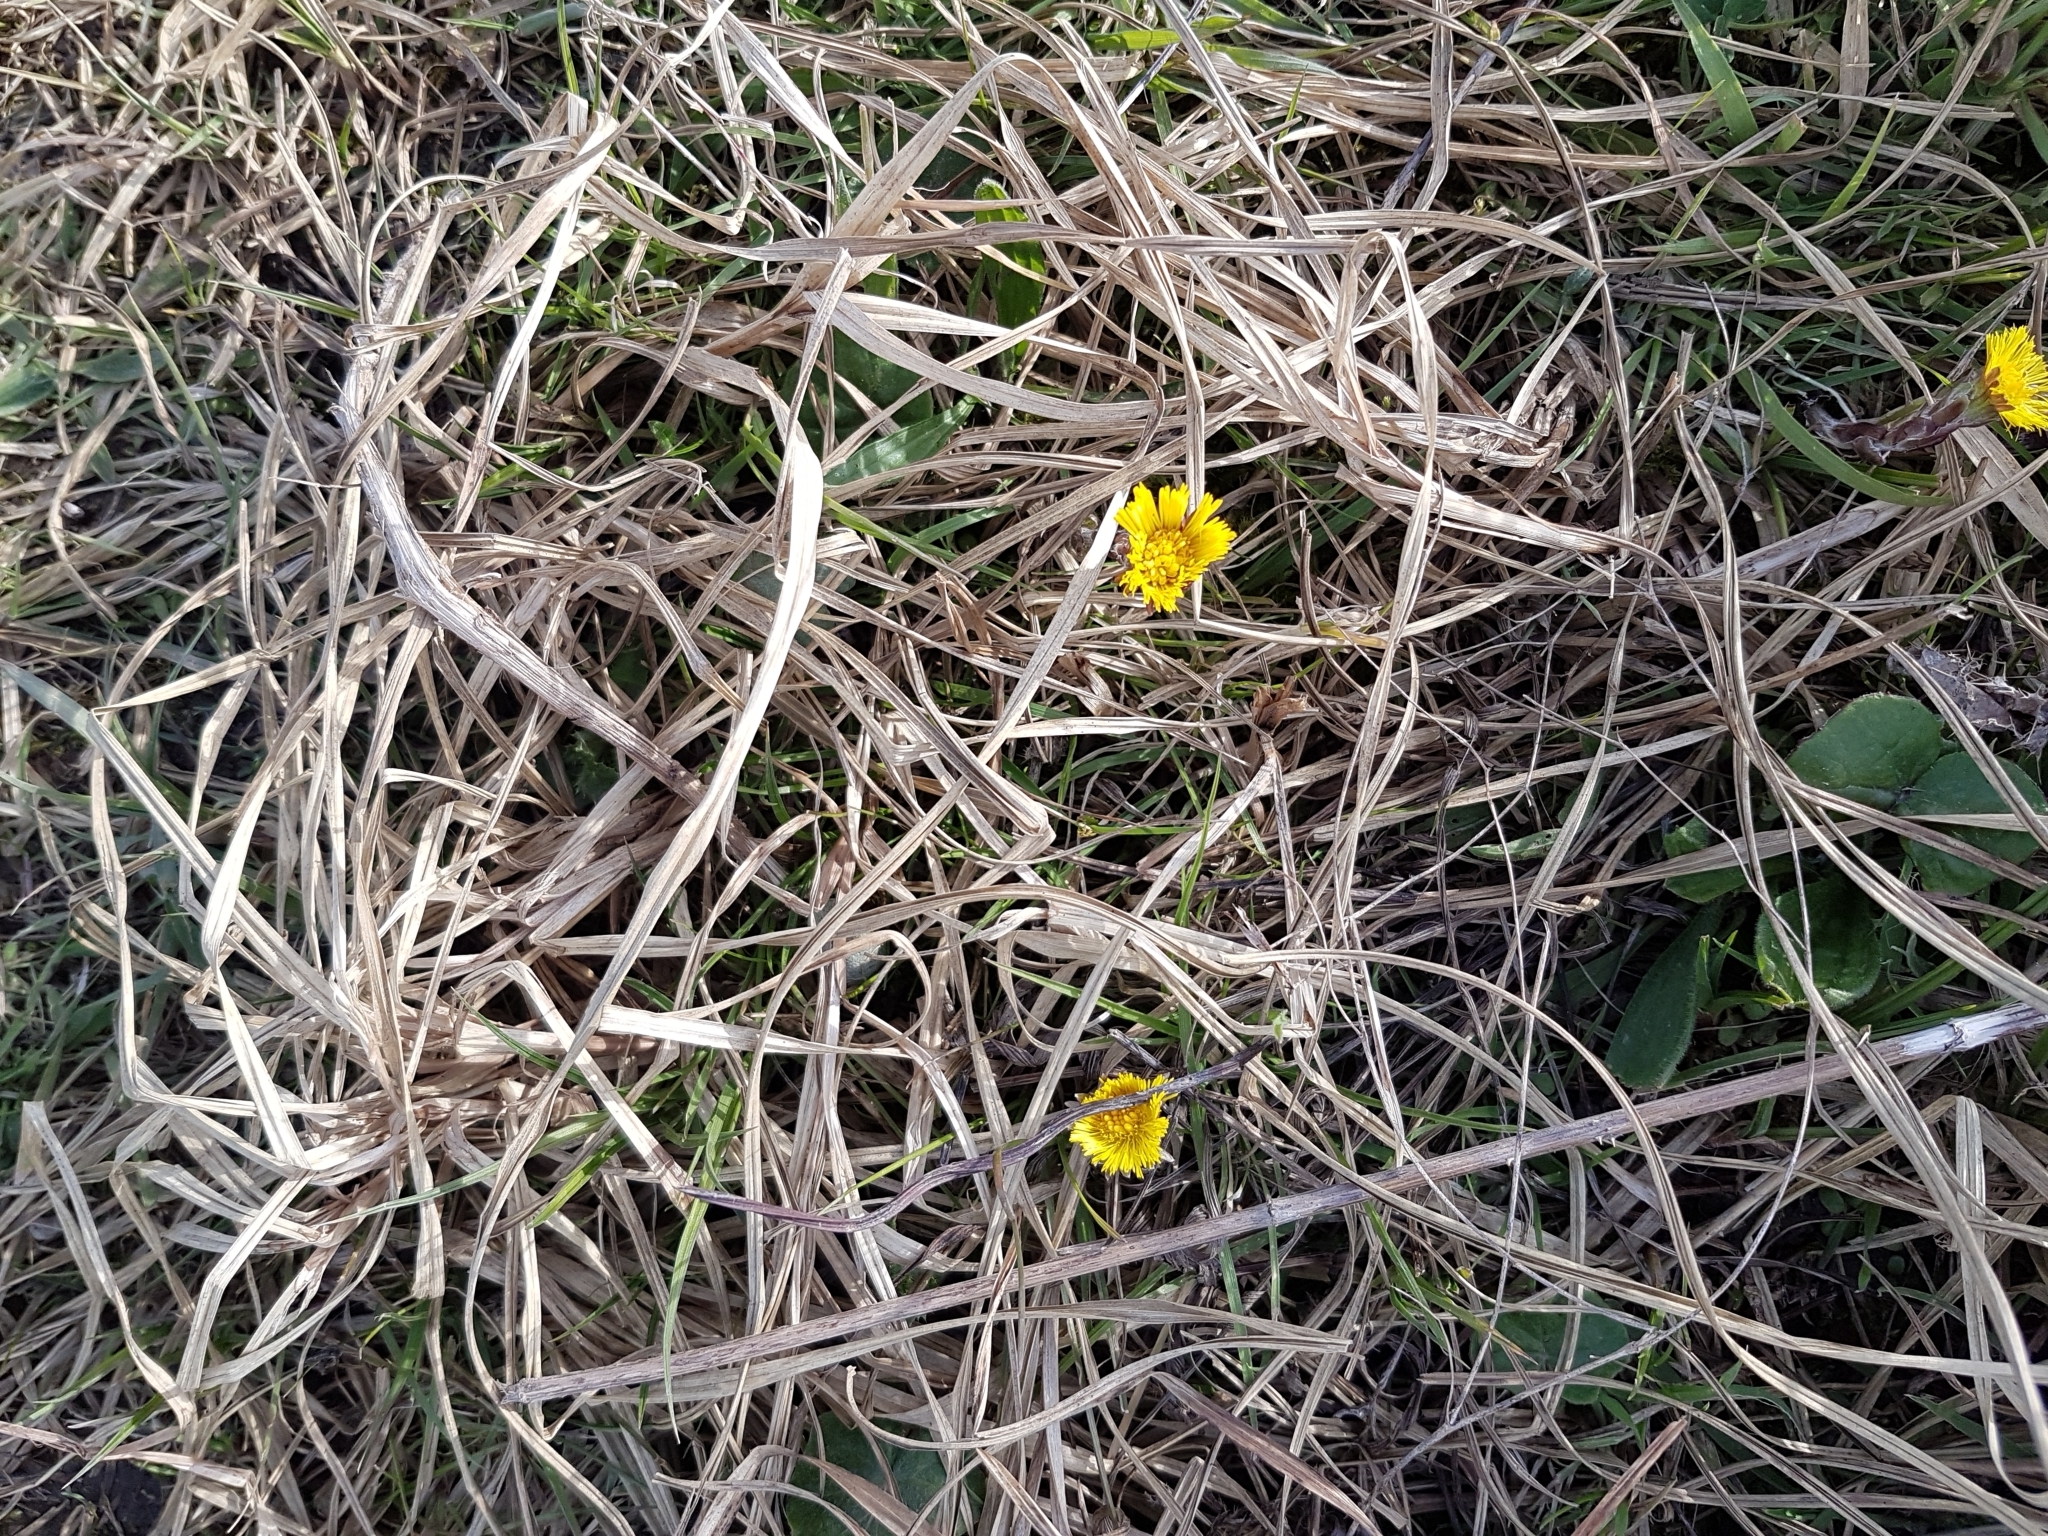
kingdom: Plantae
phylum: Tracheophyta
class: Magnoliopsida
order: Asterales
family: Asteraceae
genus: Tussilago
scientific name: Tussilago farfara
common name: Coltsfoot
